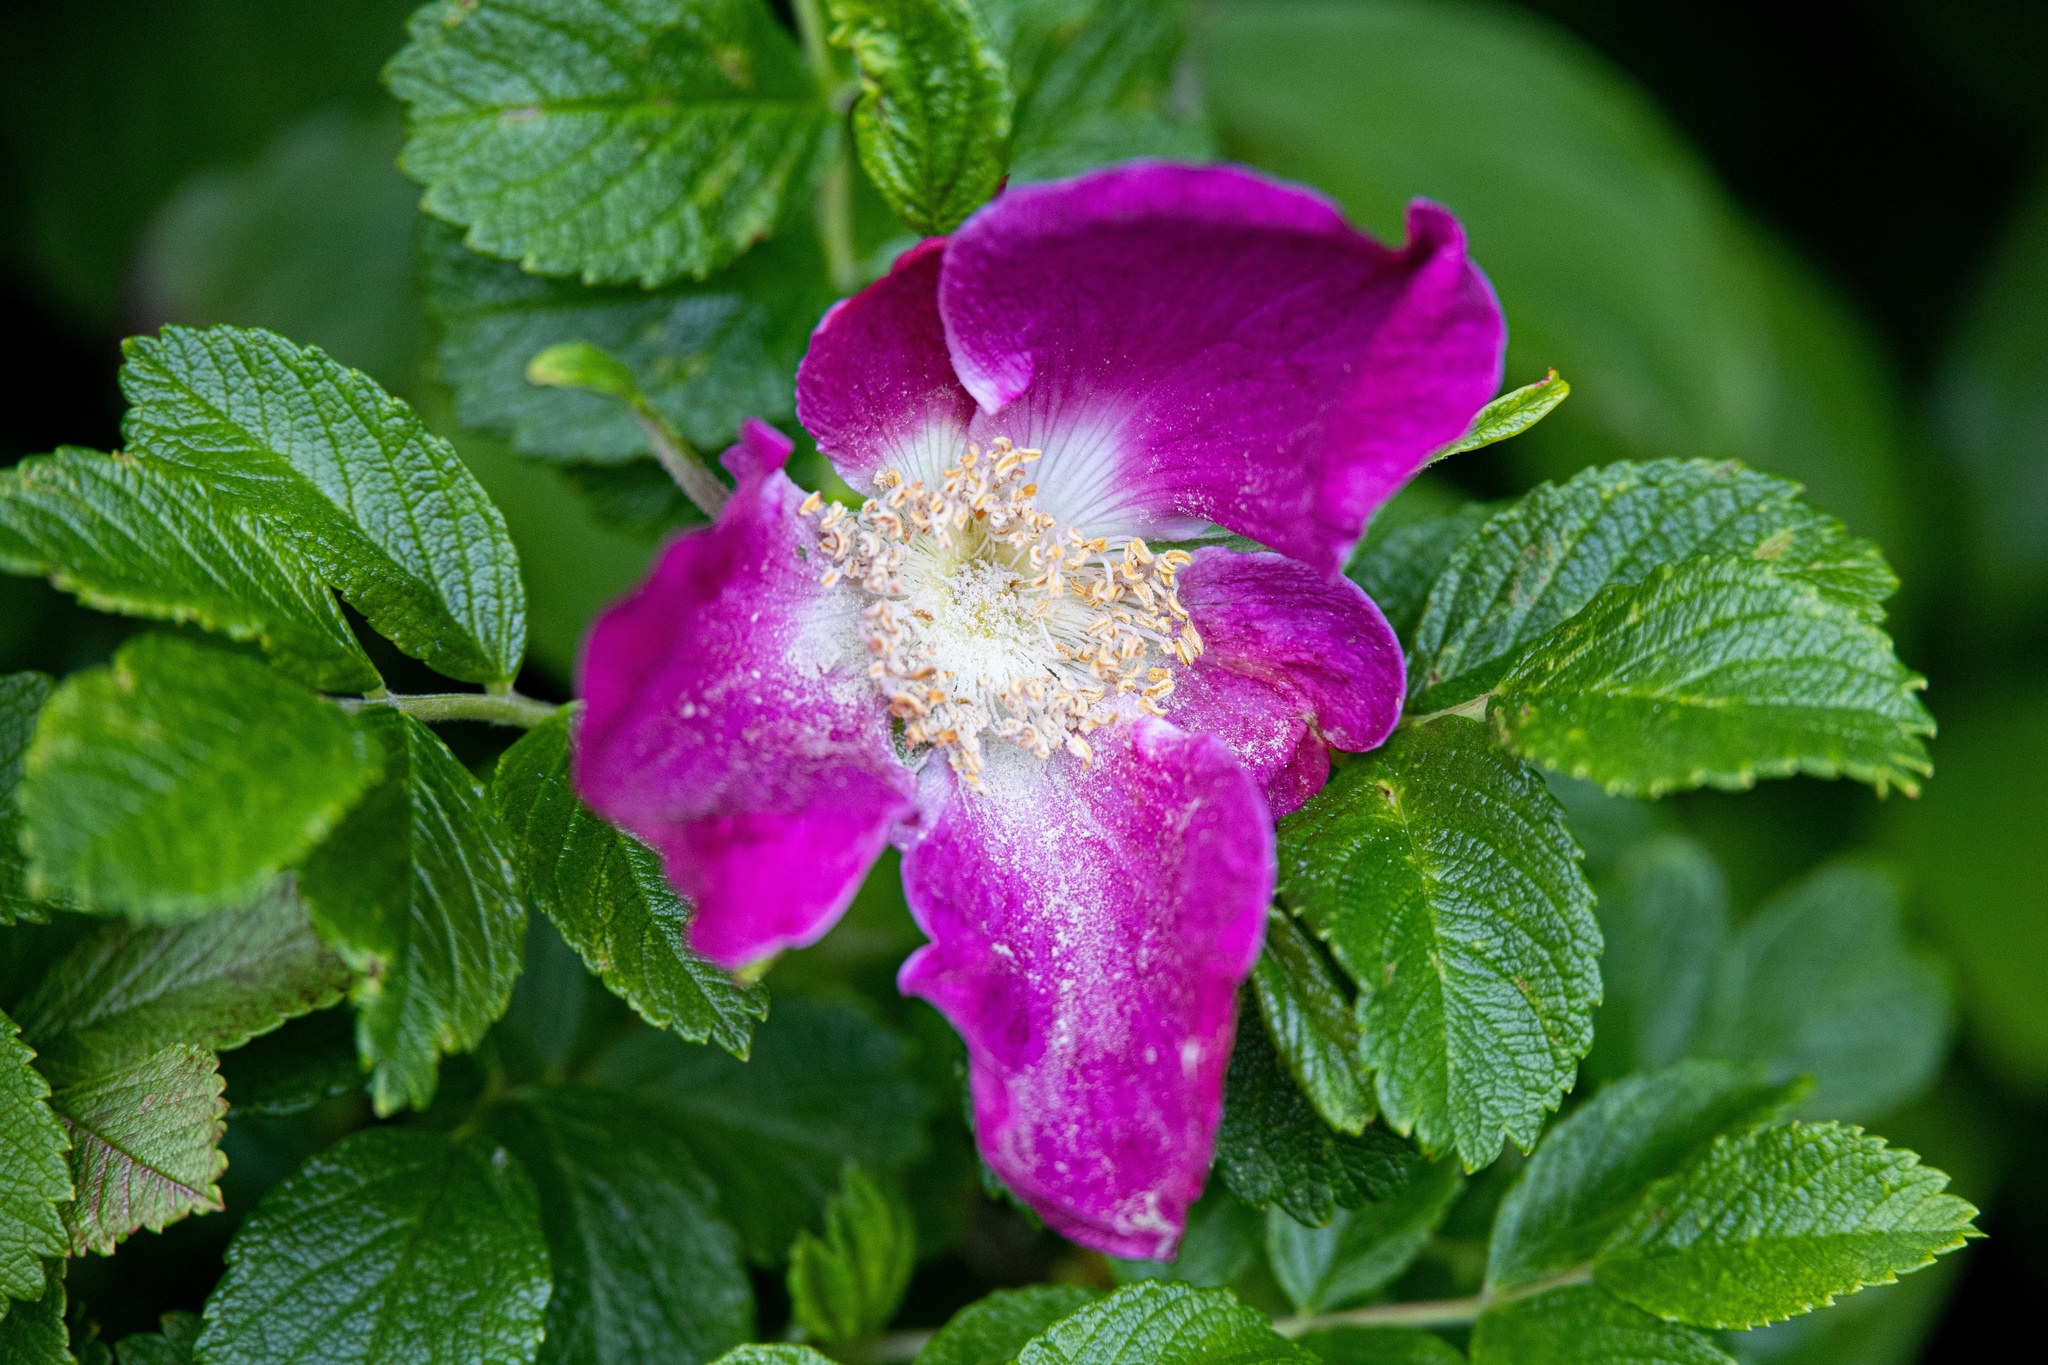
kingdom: Plantae
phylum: Tracheophyta
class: Magnoliopsida
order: Rosales
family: Rosaceae
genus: Rosa
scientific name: Rosa rugosa
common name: Japanese rose
